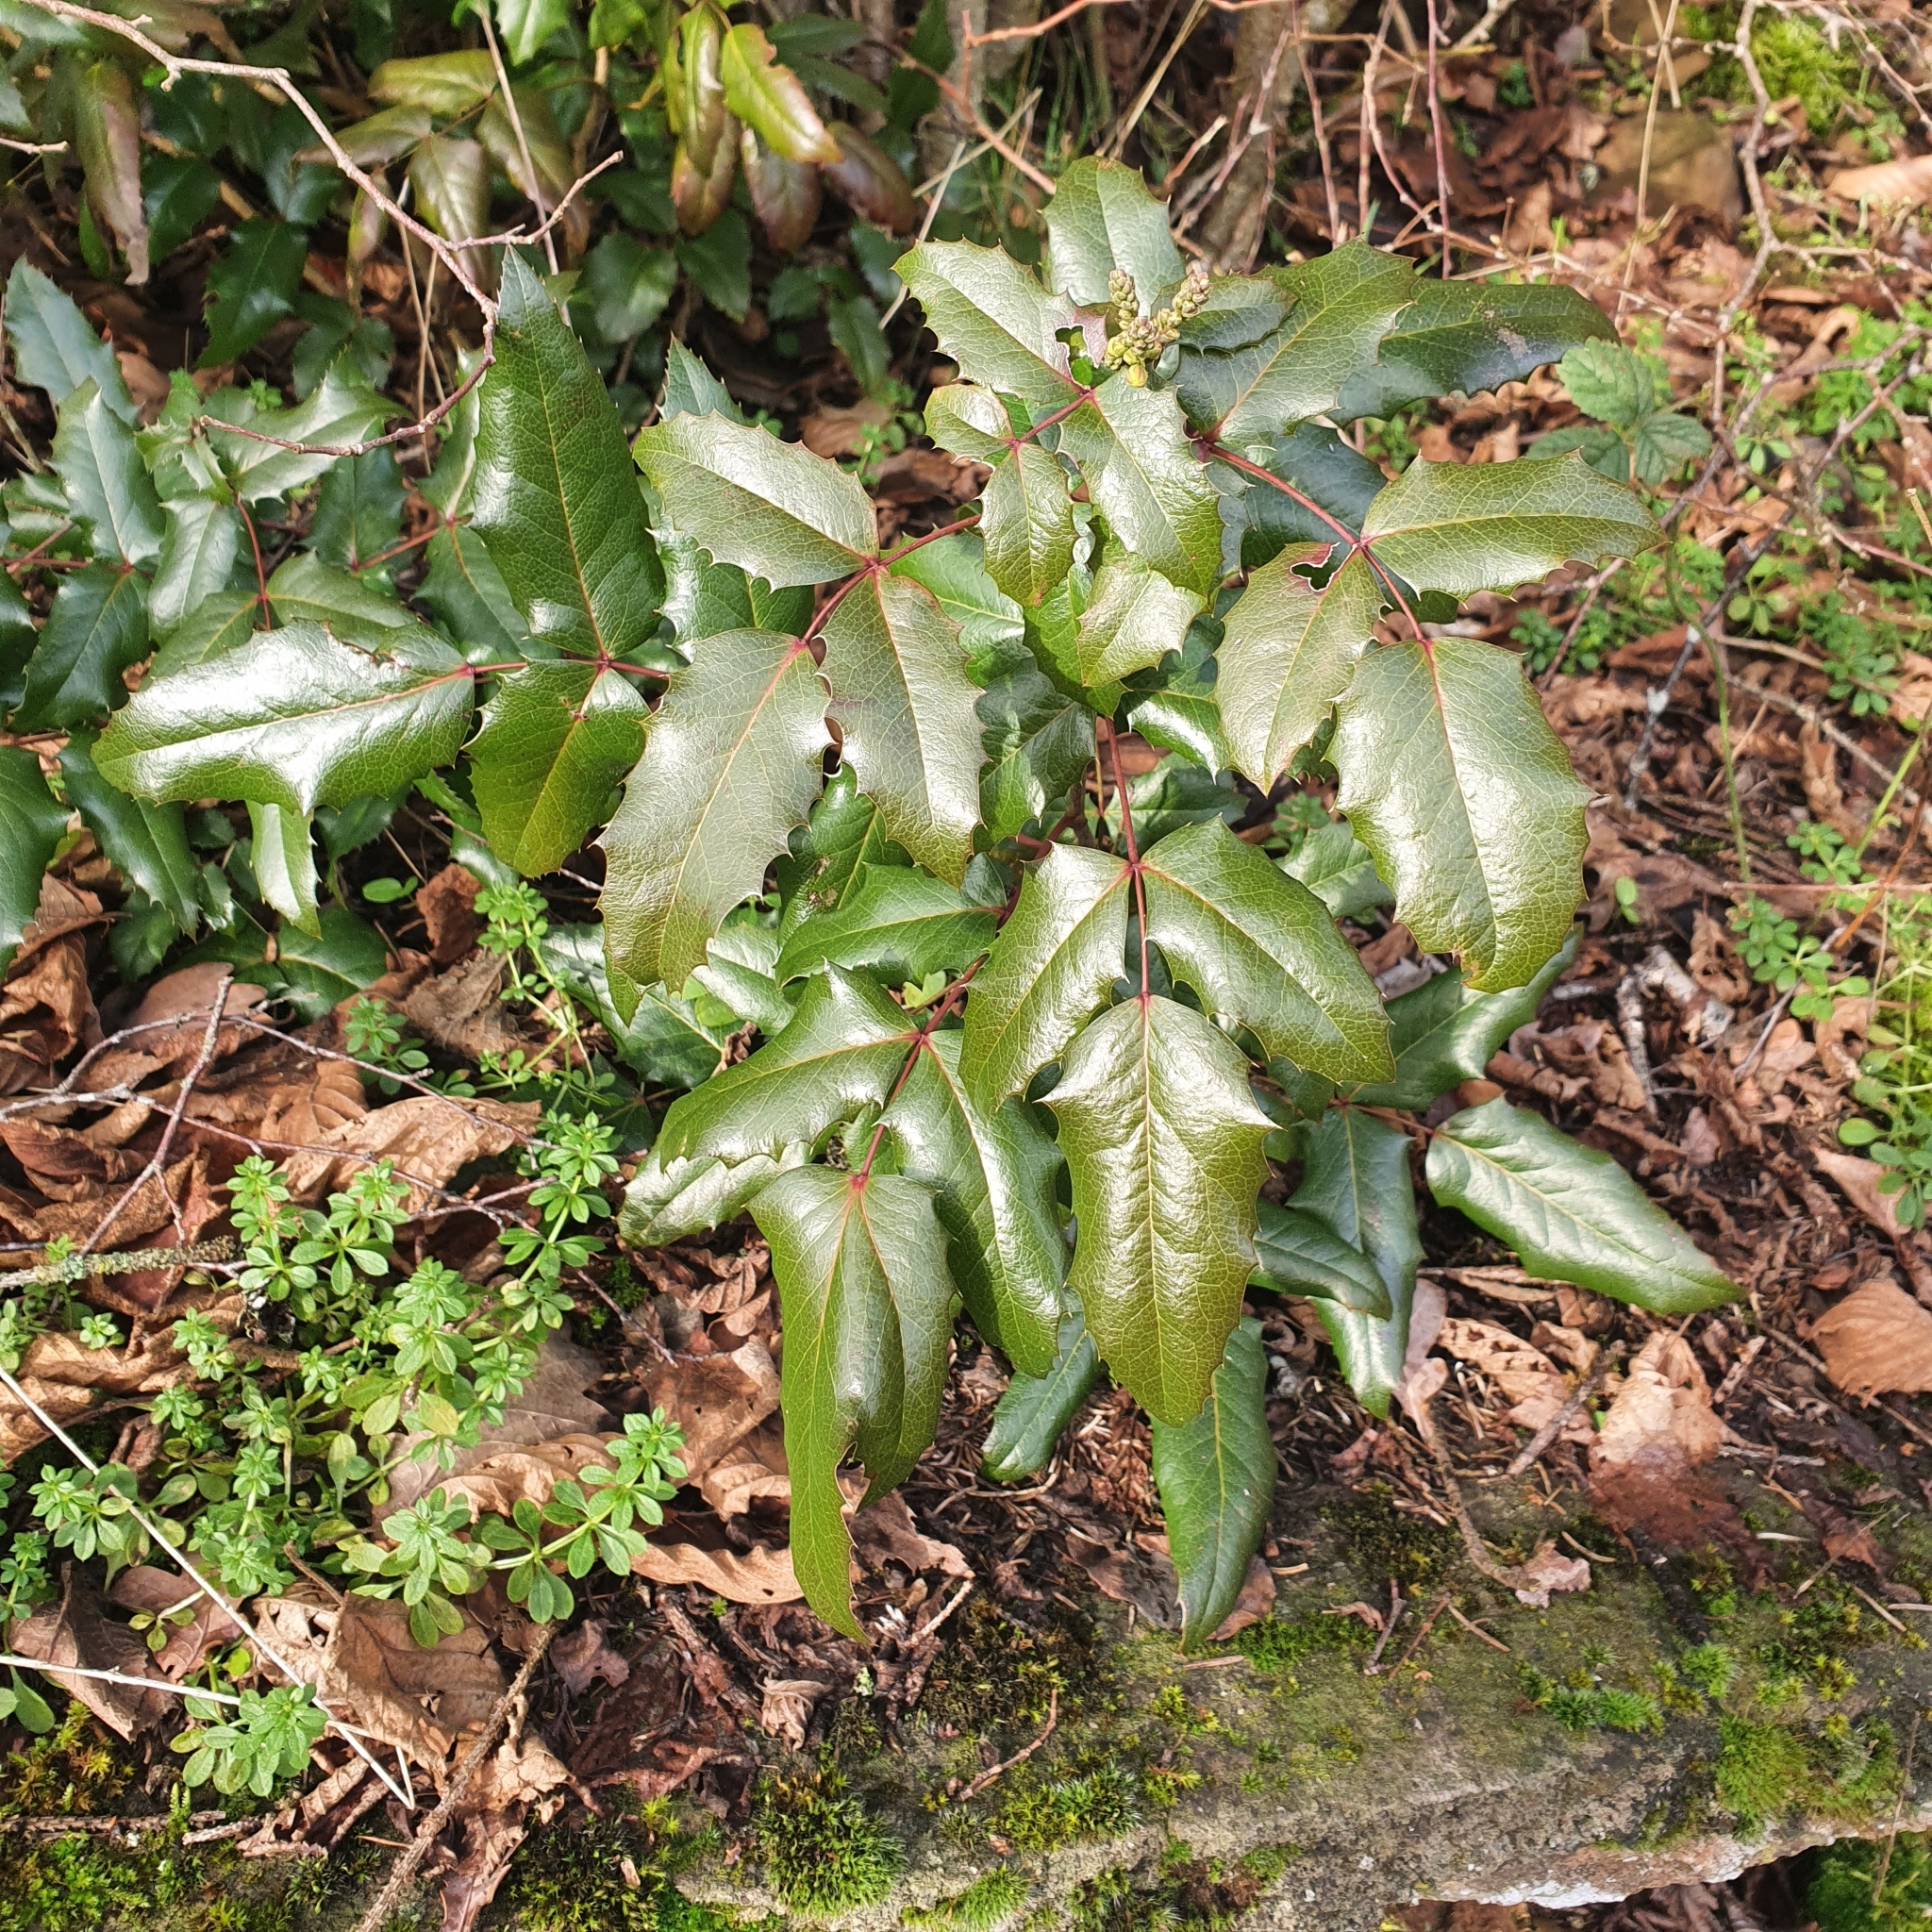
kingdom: Plantae
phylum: Tracheophyta
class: Magnoliopsida
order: Ranunculales
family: Berberidaceae
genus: Mahonia
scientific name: Mahonia aquifolium
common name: Oregon-grape
